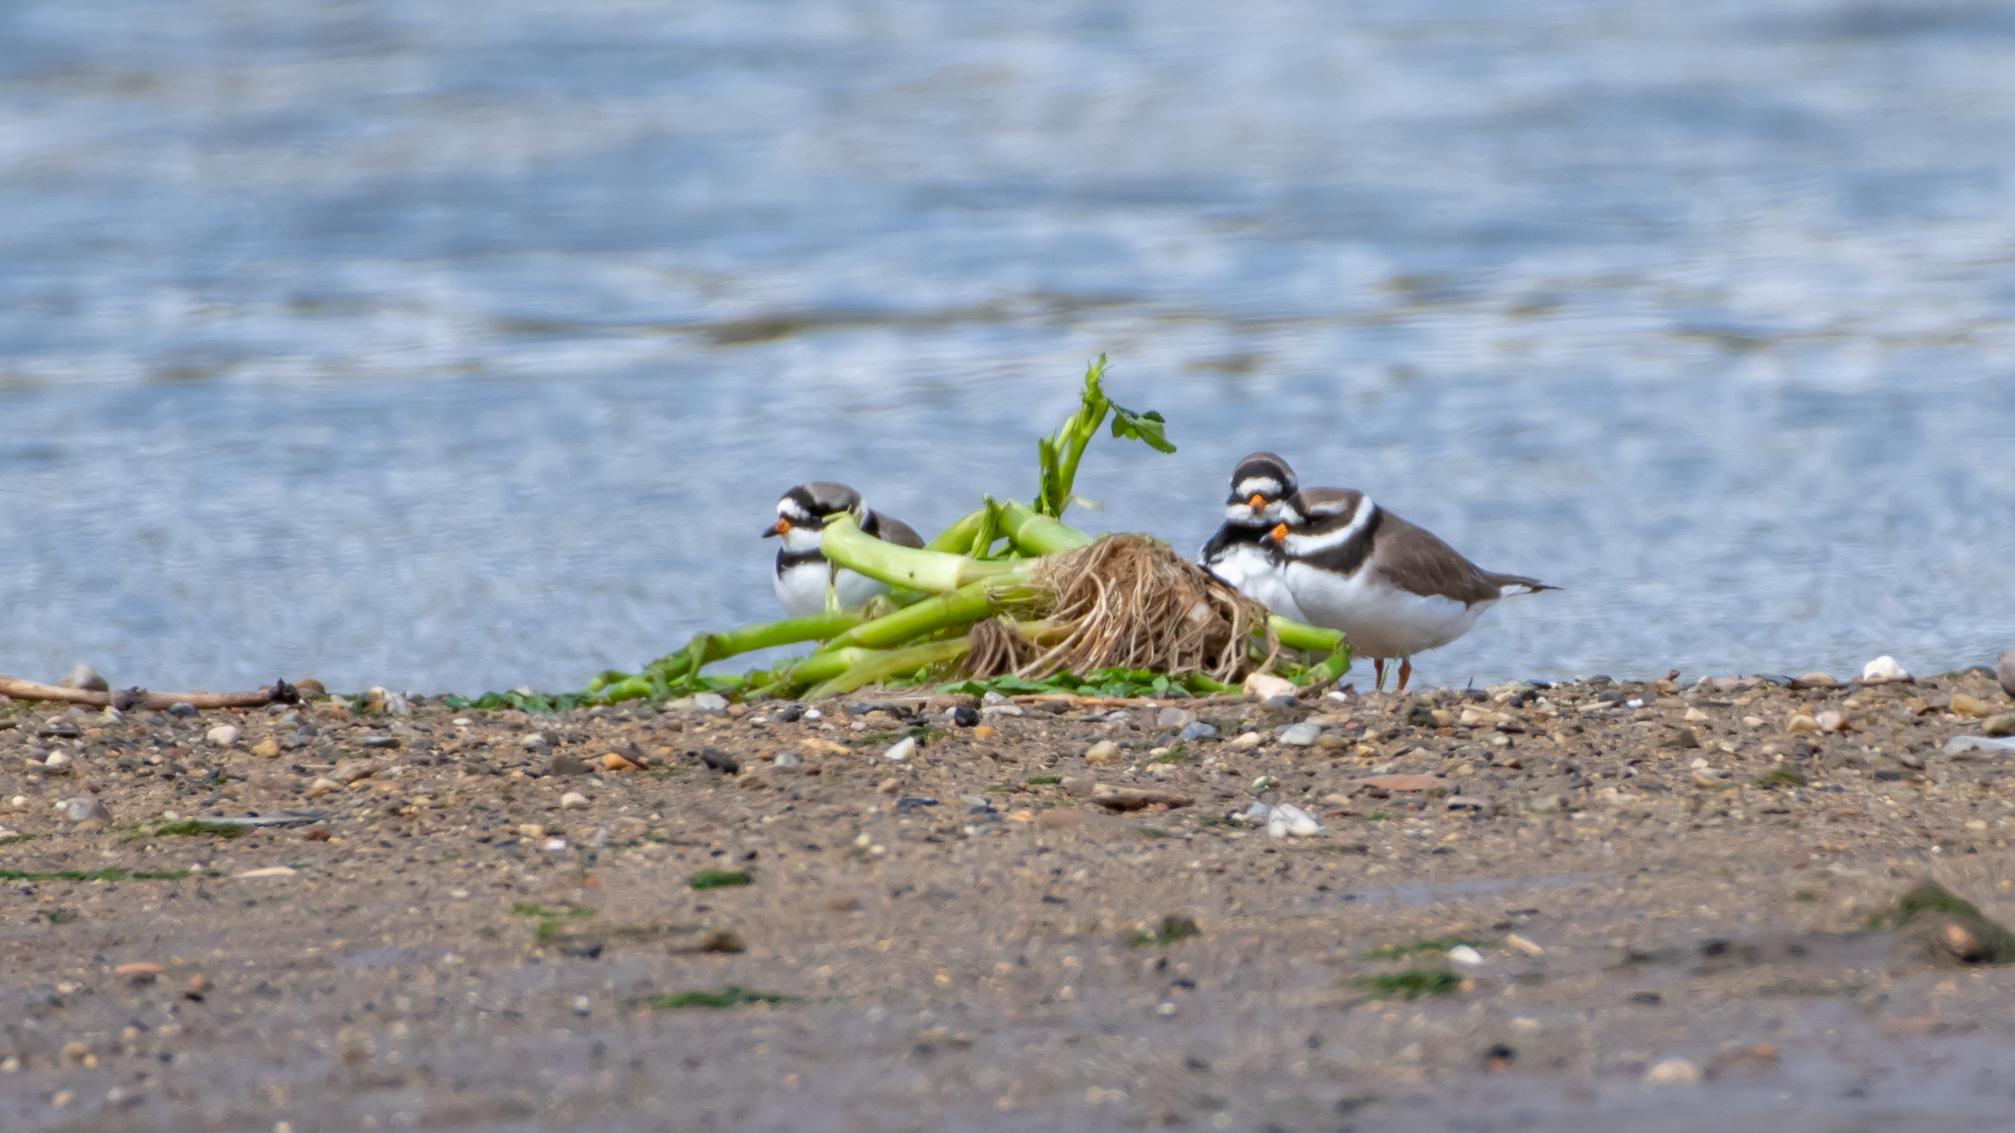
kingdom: Animalia
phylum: Chordata
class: Aves
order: Charadriiformes
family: Charadriidae
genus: Charadrius
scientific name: Charadrius hiaticula
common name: Common ringed plover
